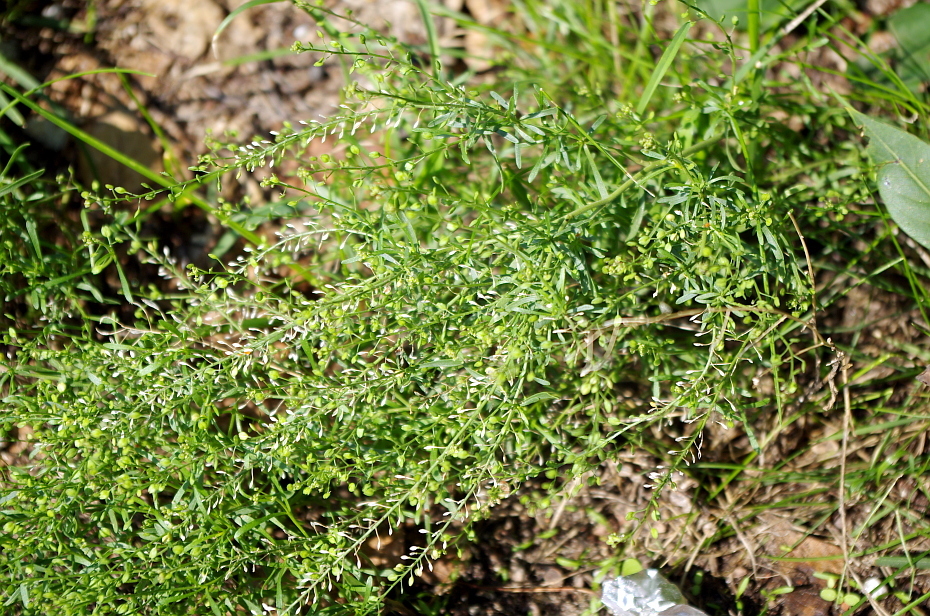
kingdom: Plantae
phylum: Tracheophyta
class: Magnoliopsida
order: Brassicales
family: Brassicaceae
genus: Lepidium
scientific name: Lepidium ruderale
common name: Narrow-leaved pepperwort
